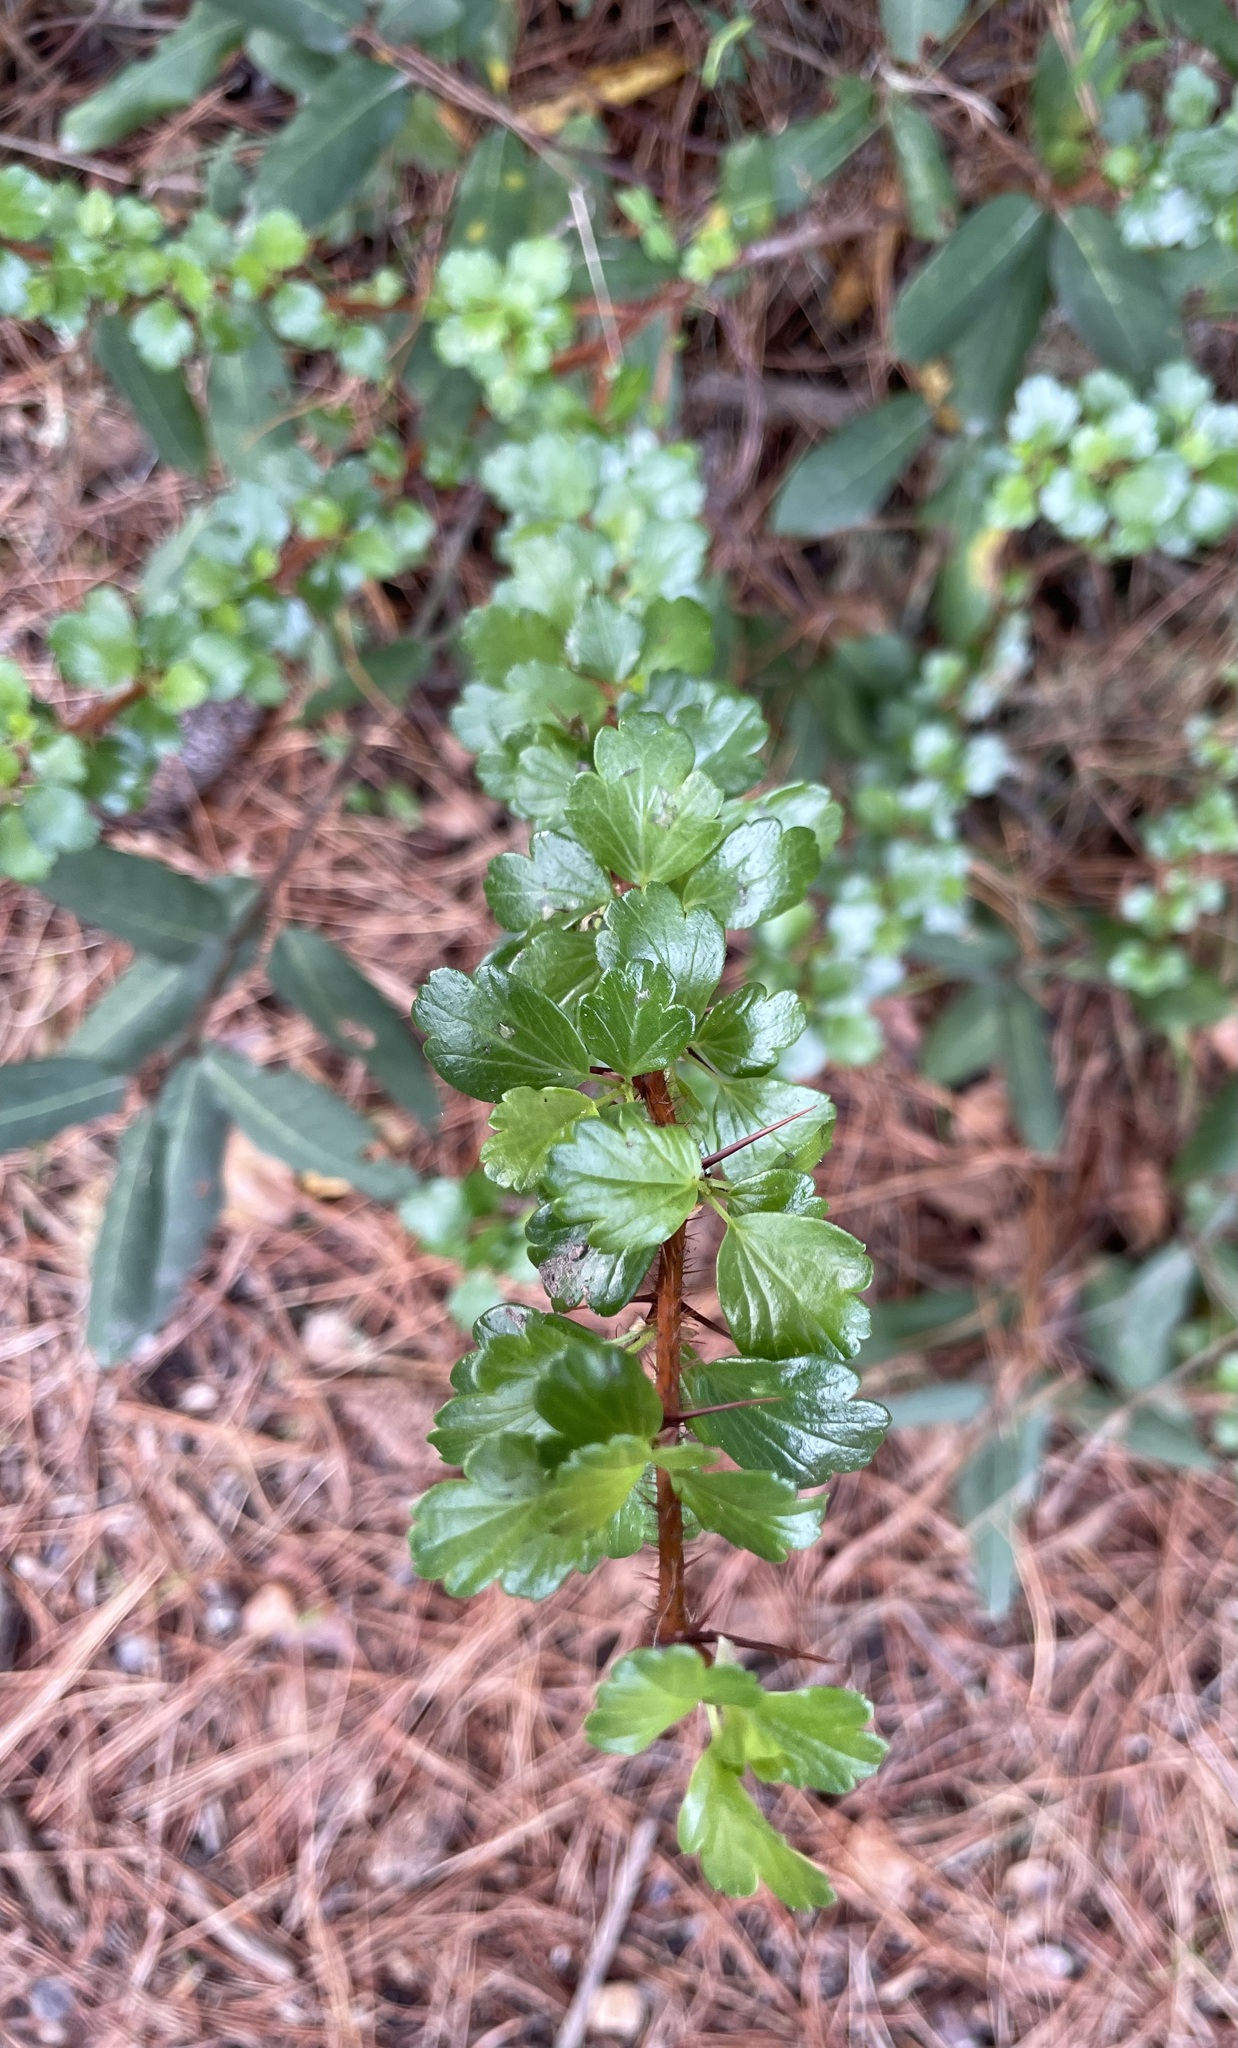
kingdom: Plantae
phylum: Tracheophyta
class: Magnoliopsida
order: Saxifragales
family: Grossulariaceae
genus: Ribes
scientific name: Ribes speciosum
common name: Fuchsia-flower gooseberry
